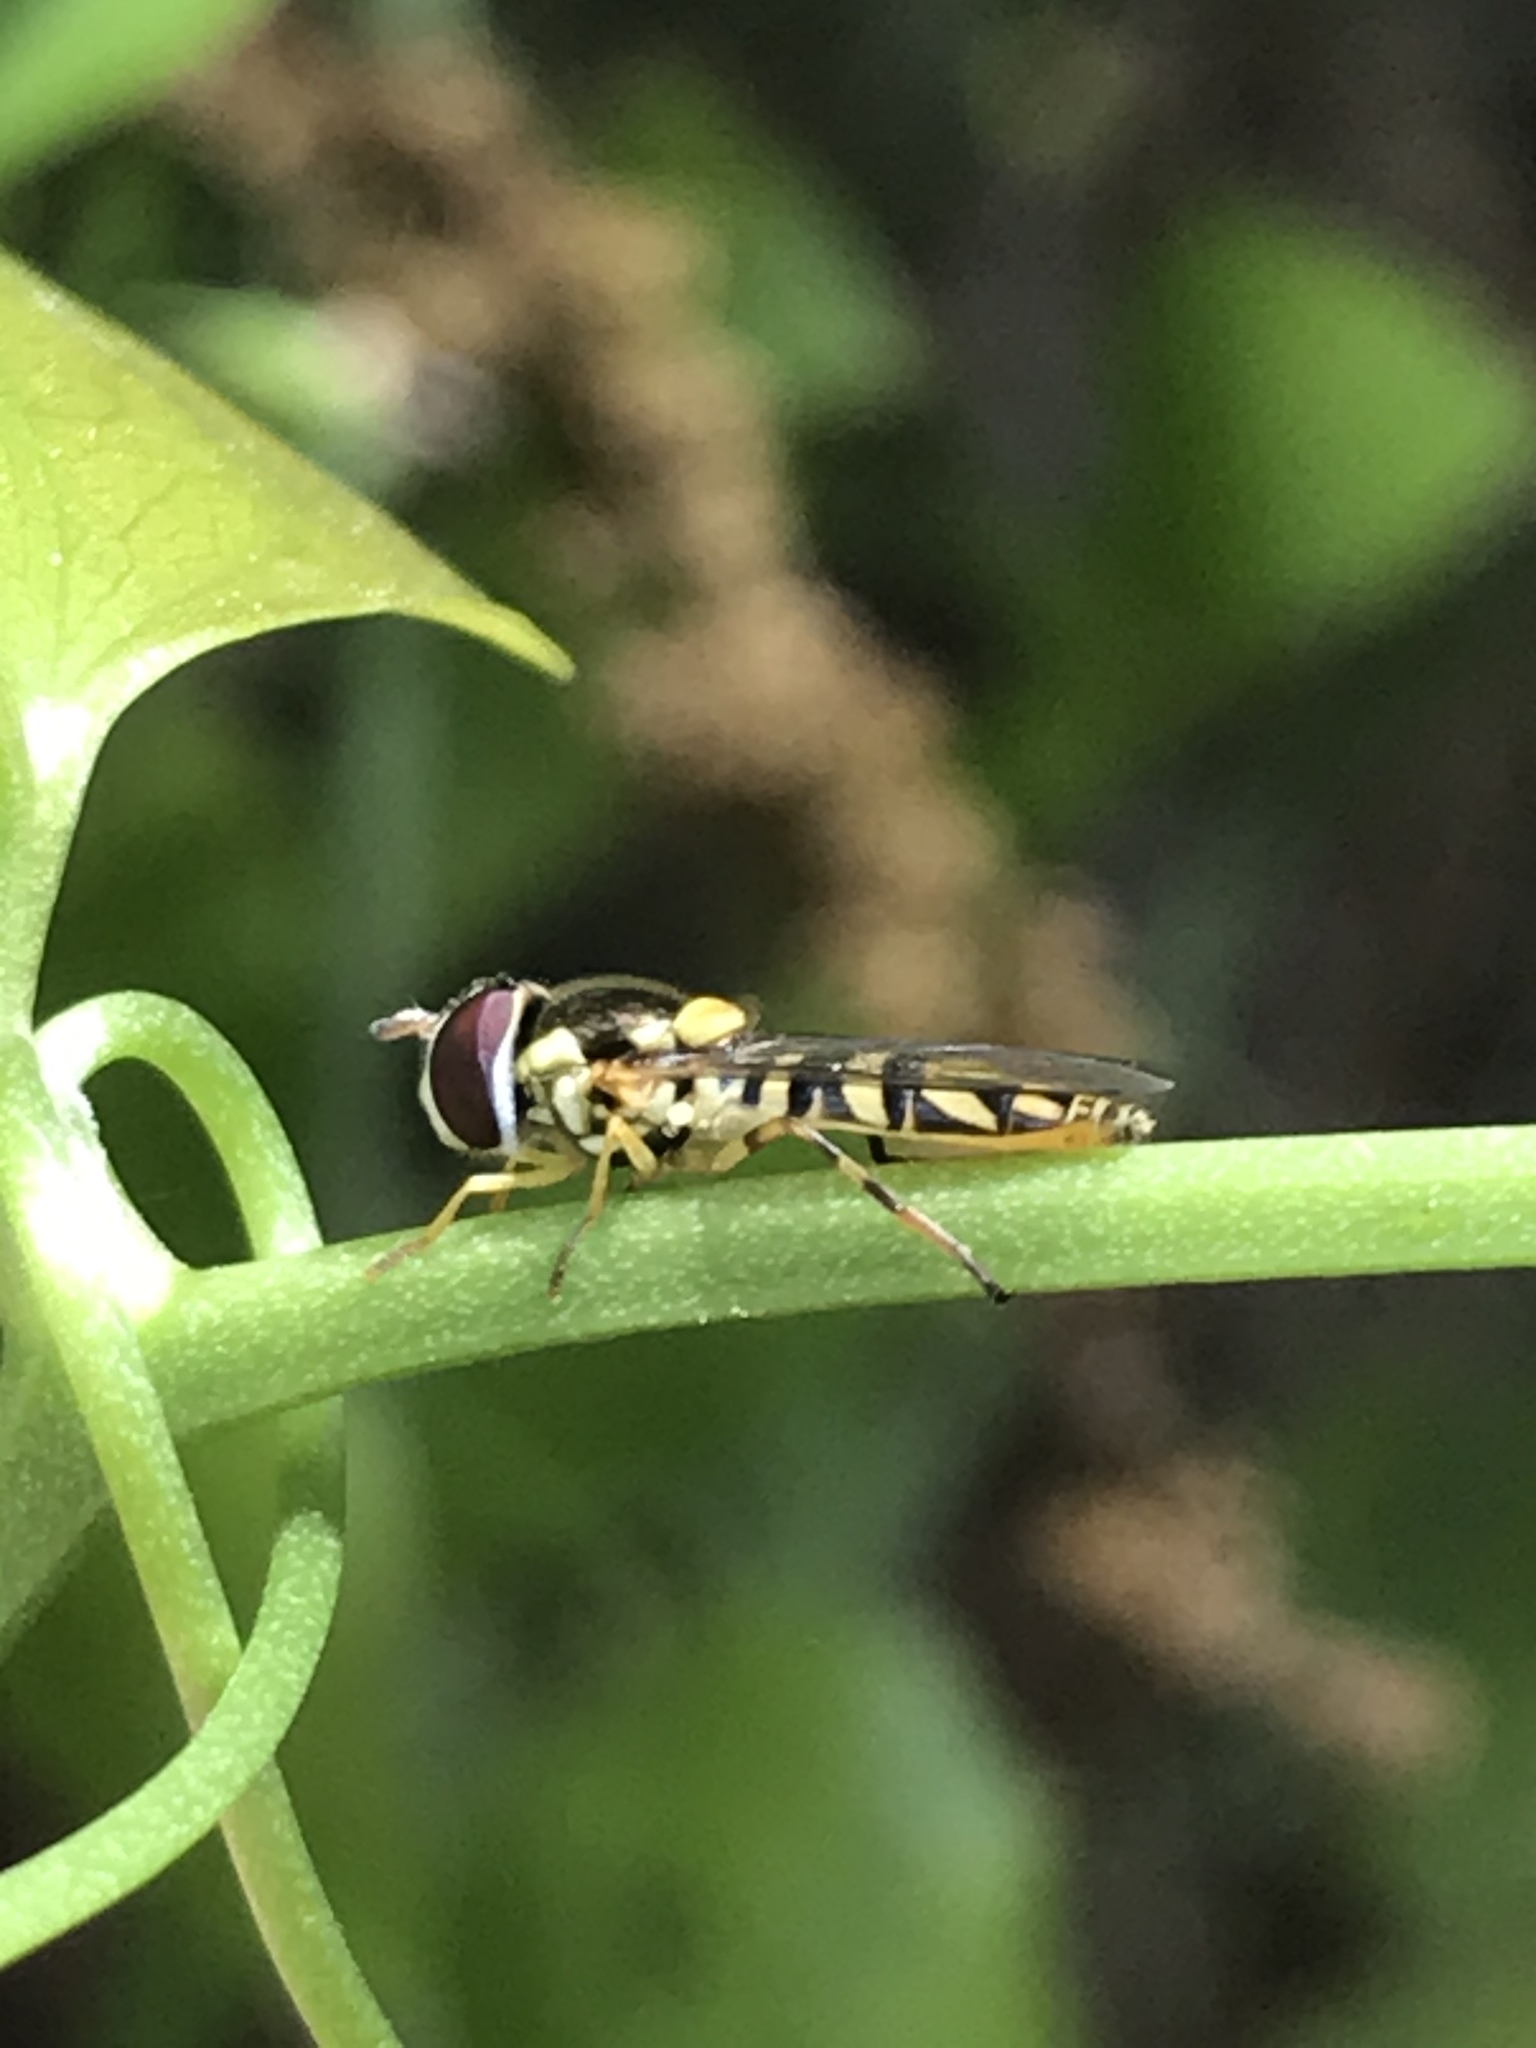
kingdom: Animalia
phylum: Arthropoda
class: Insecta
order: Diptera
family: Syrphidae
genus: Allograpta
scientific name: Allograpta obliqua
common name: Common oblique syrphid
